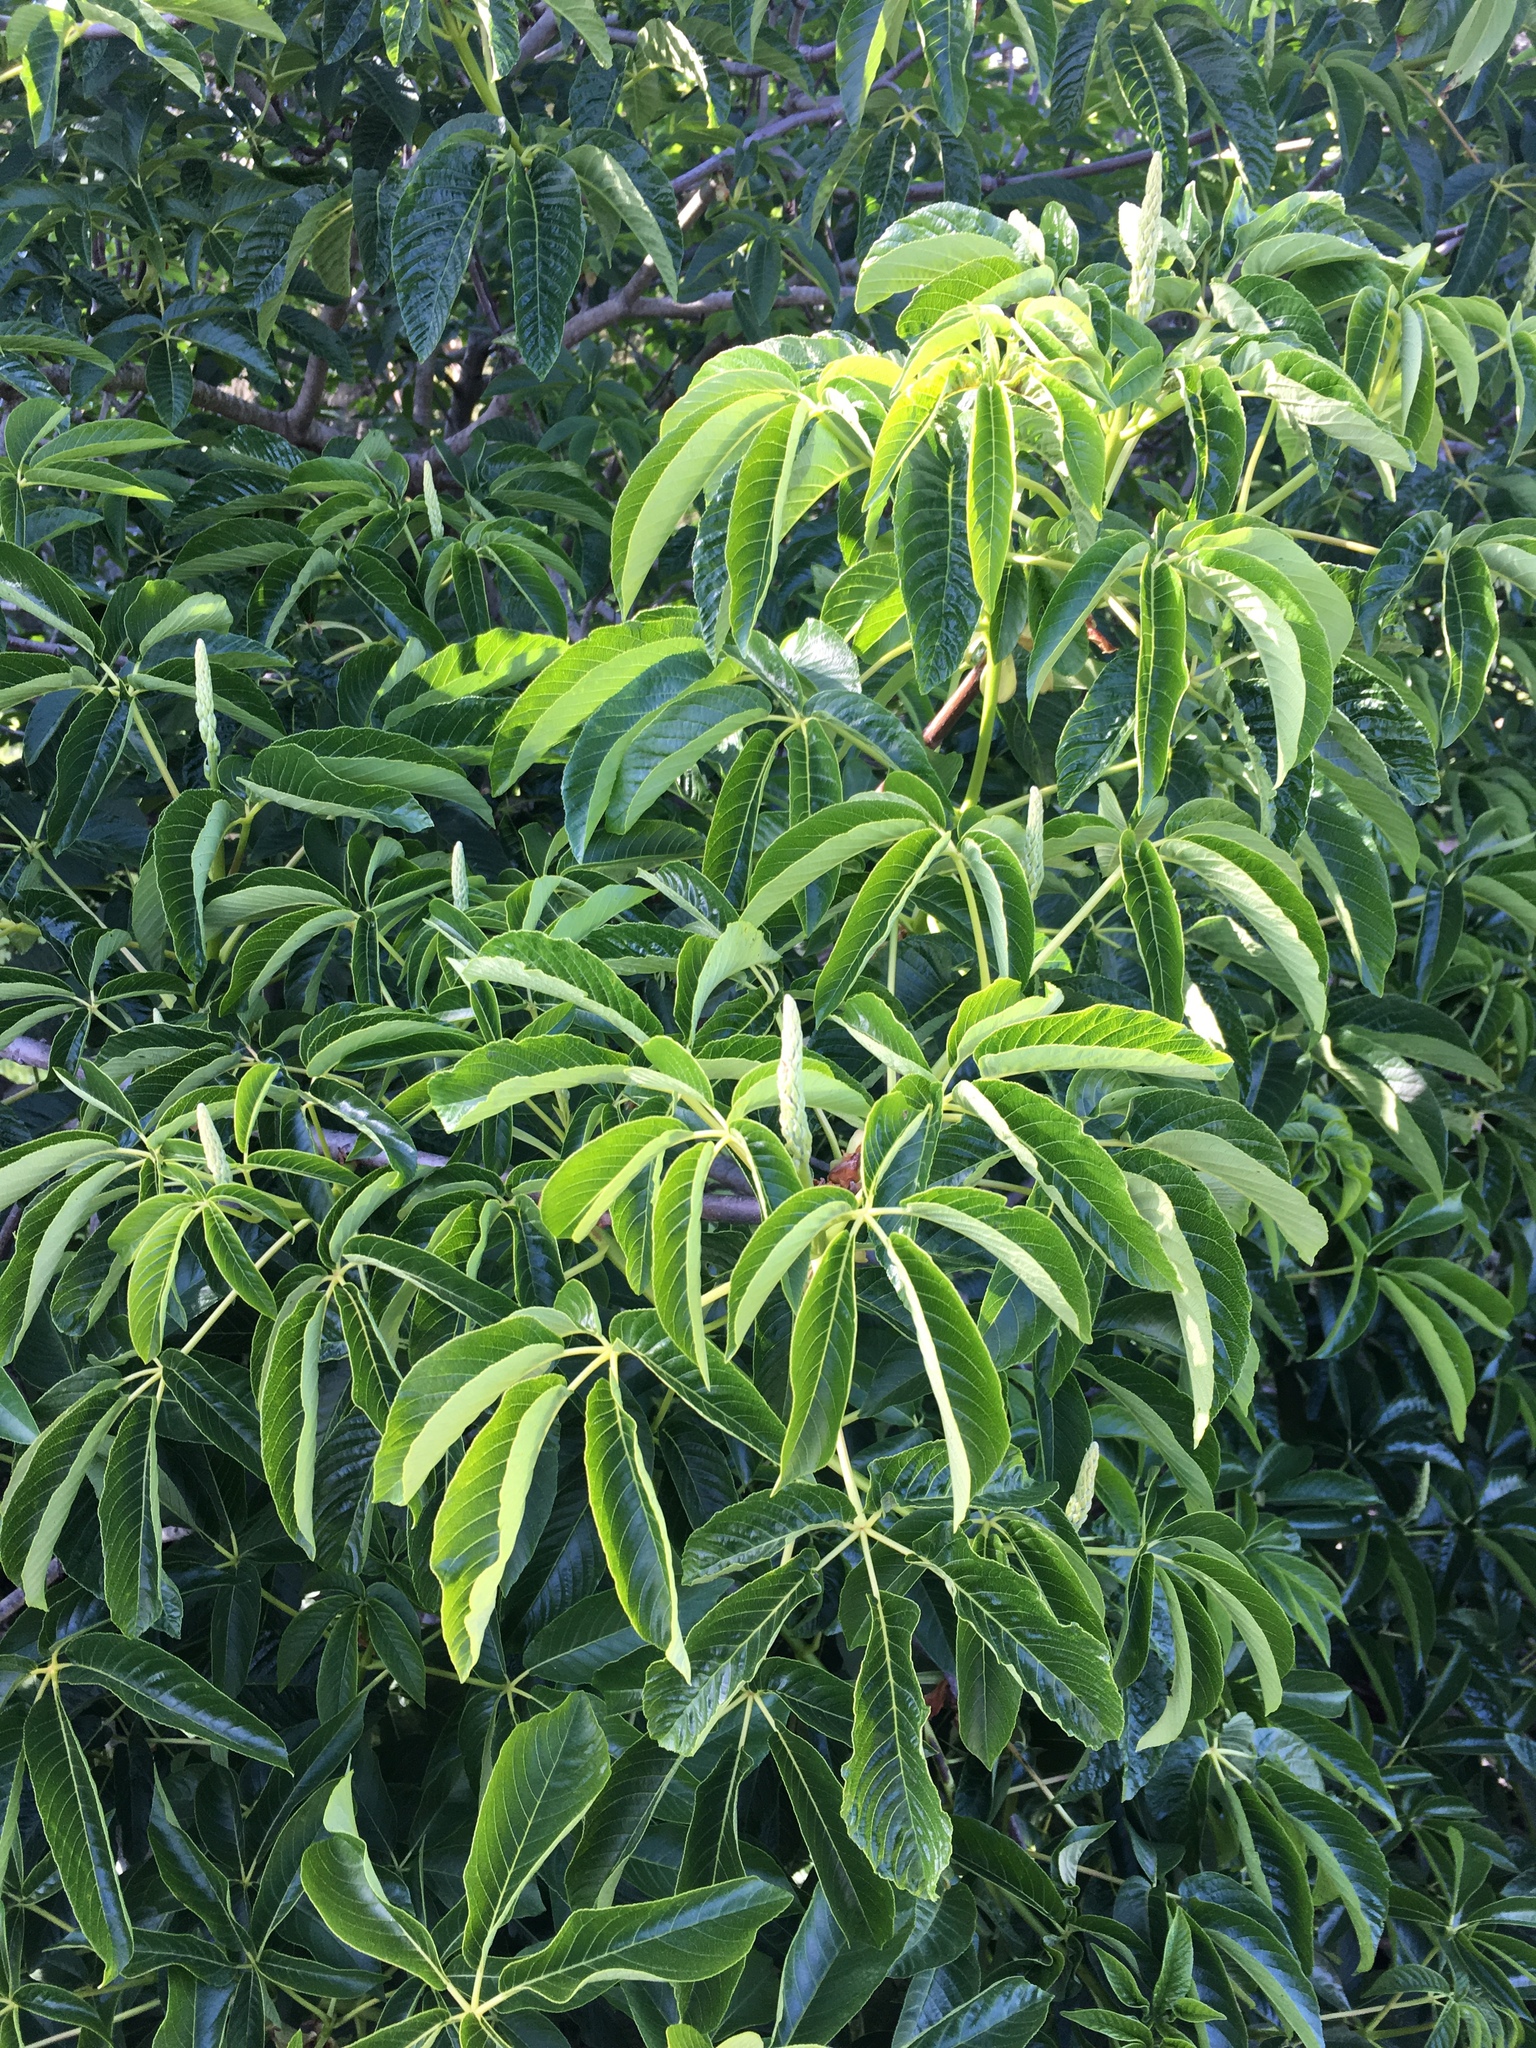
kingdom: Plantae
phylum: Tracheophyta
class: Magnoliopsida
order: Sapindales
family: Sapindaceae
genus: Aesculus
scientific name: Aesculus californica
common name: California buckeye
